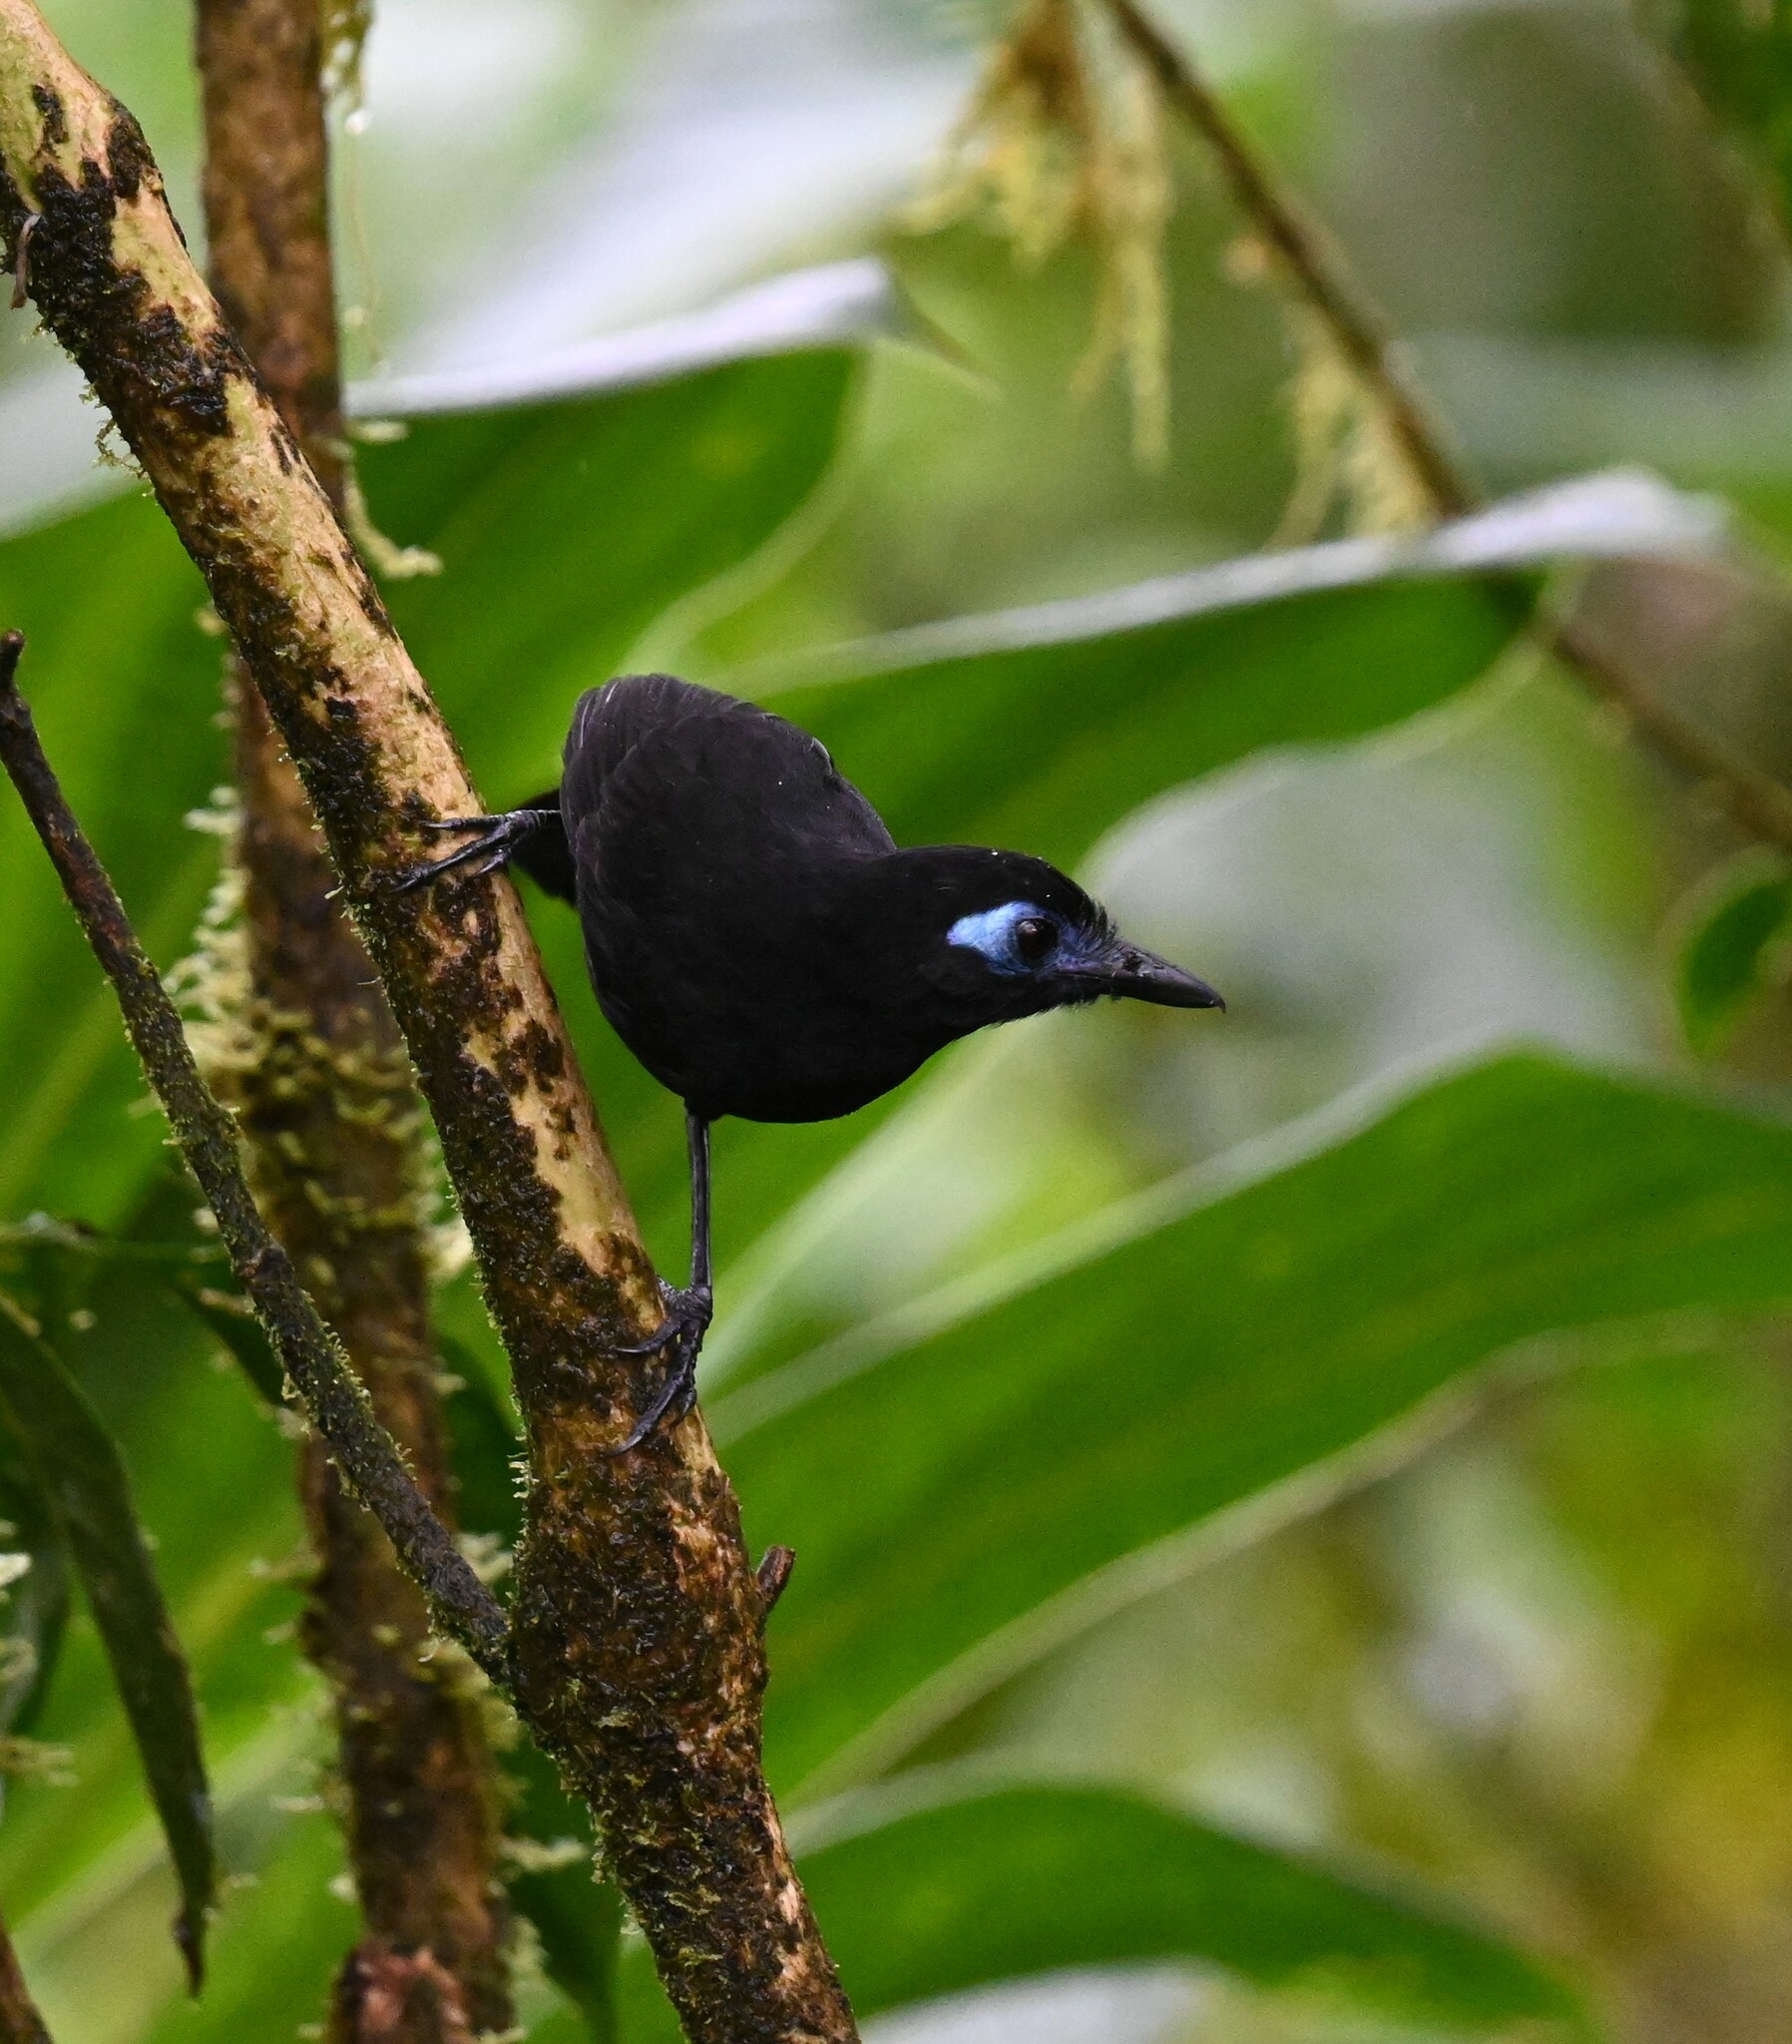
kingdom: Animalia
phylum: Chordata
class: Aves
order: Passeriformes
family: Thamnophilidae
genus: Hafferia
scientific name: Hafferia zeledoni
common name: Zeledon's antbird
